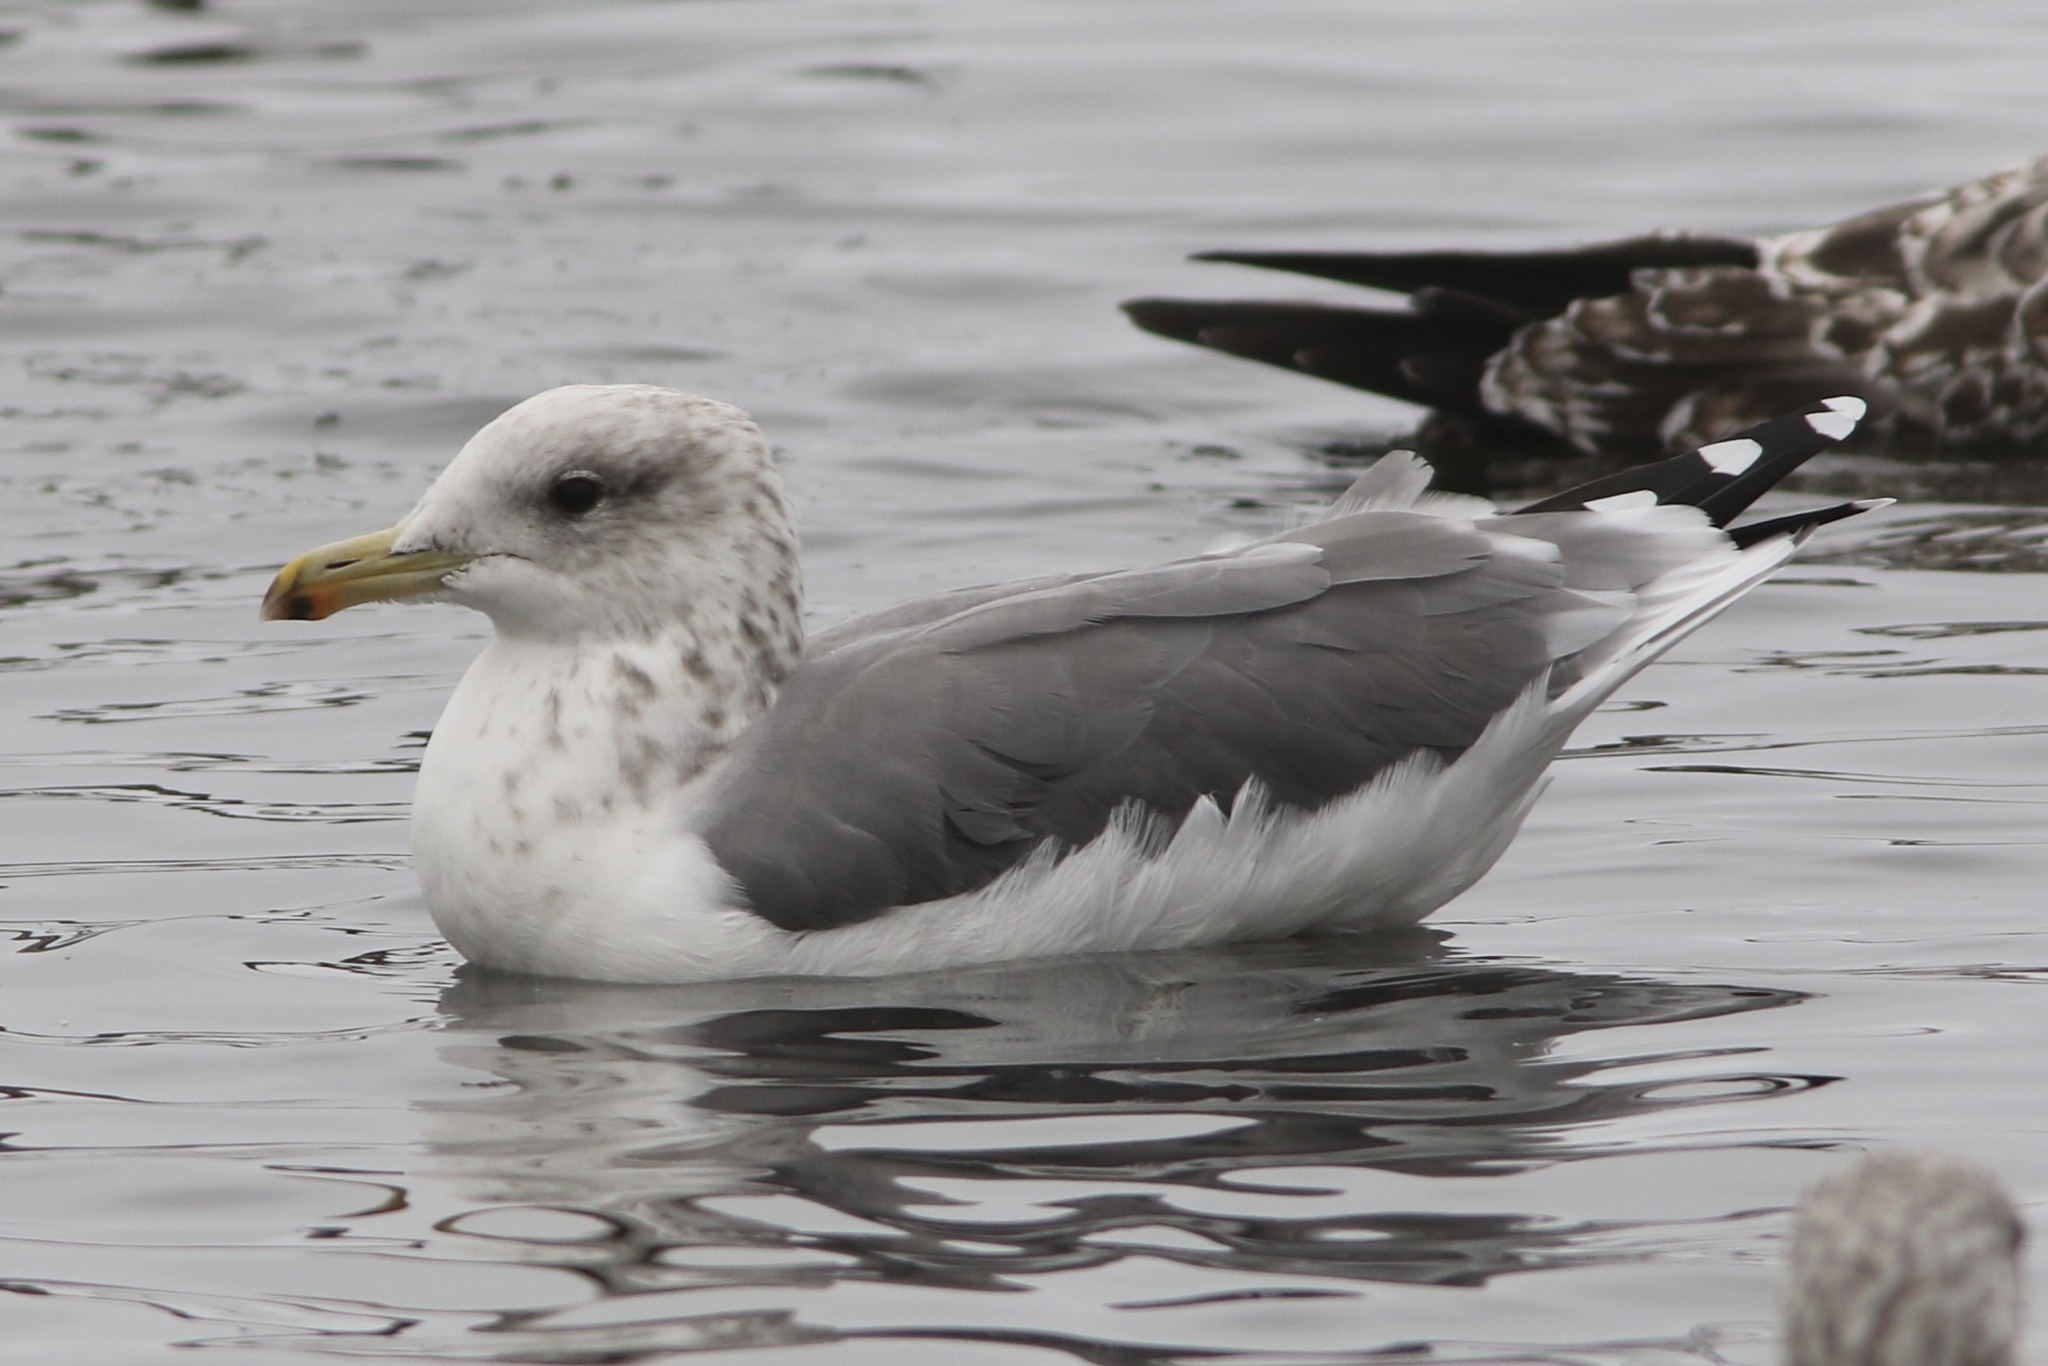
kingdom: Animalia
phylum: Chordata
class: Aves
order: Charadriiformes
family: Laridae
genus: Larus
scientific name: Larus californicus
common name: California gull
